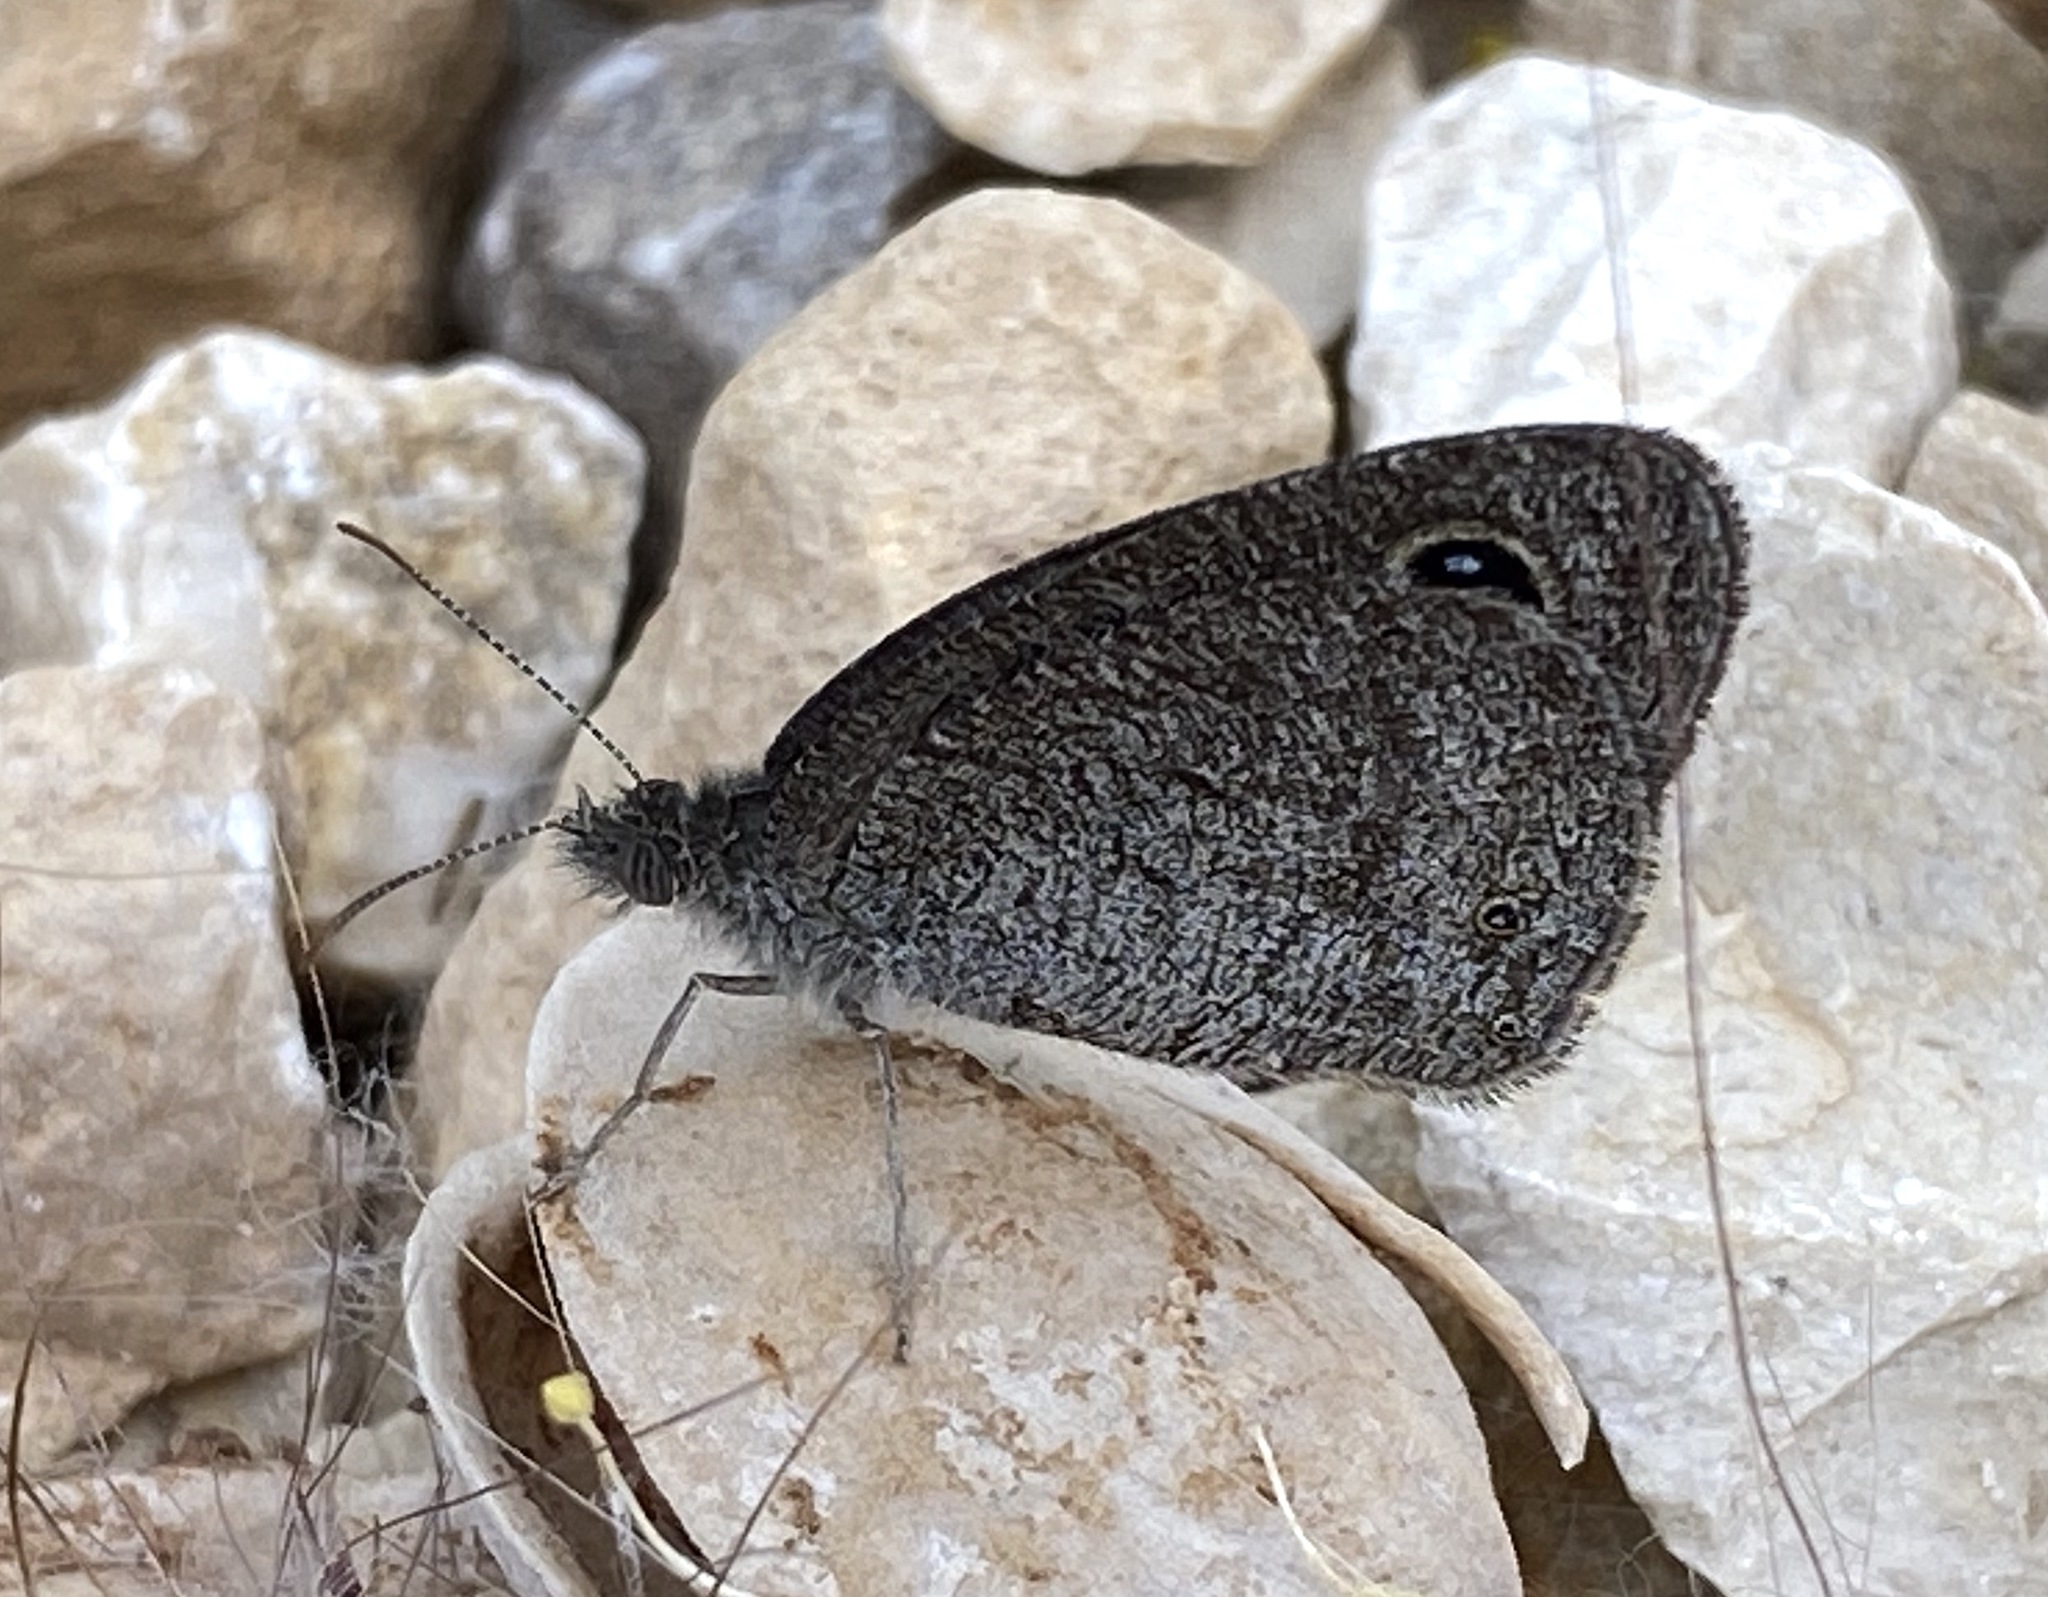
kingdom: Animalia
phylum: Arthropoda
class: Insecta
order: Lepidoptera
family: Nymphalidae
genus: Ypthima
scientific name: Ypthima asterope
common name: African ringlet
